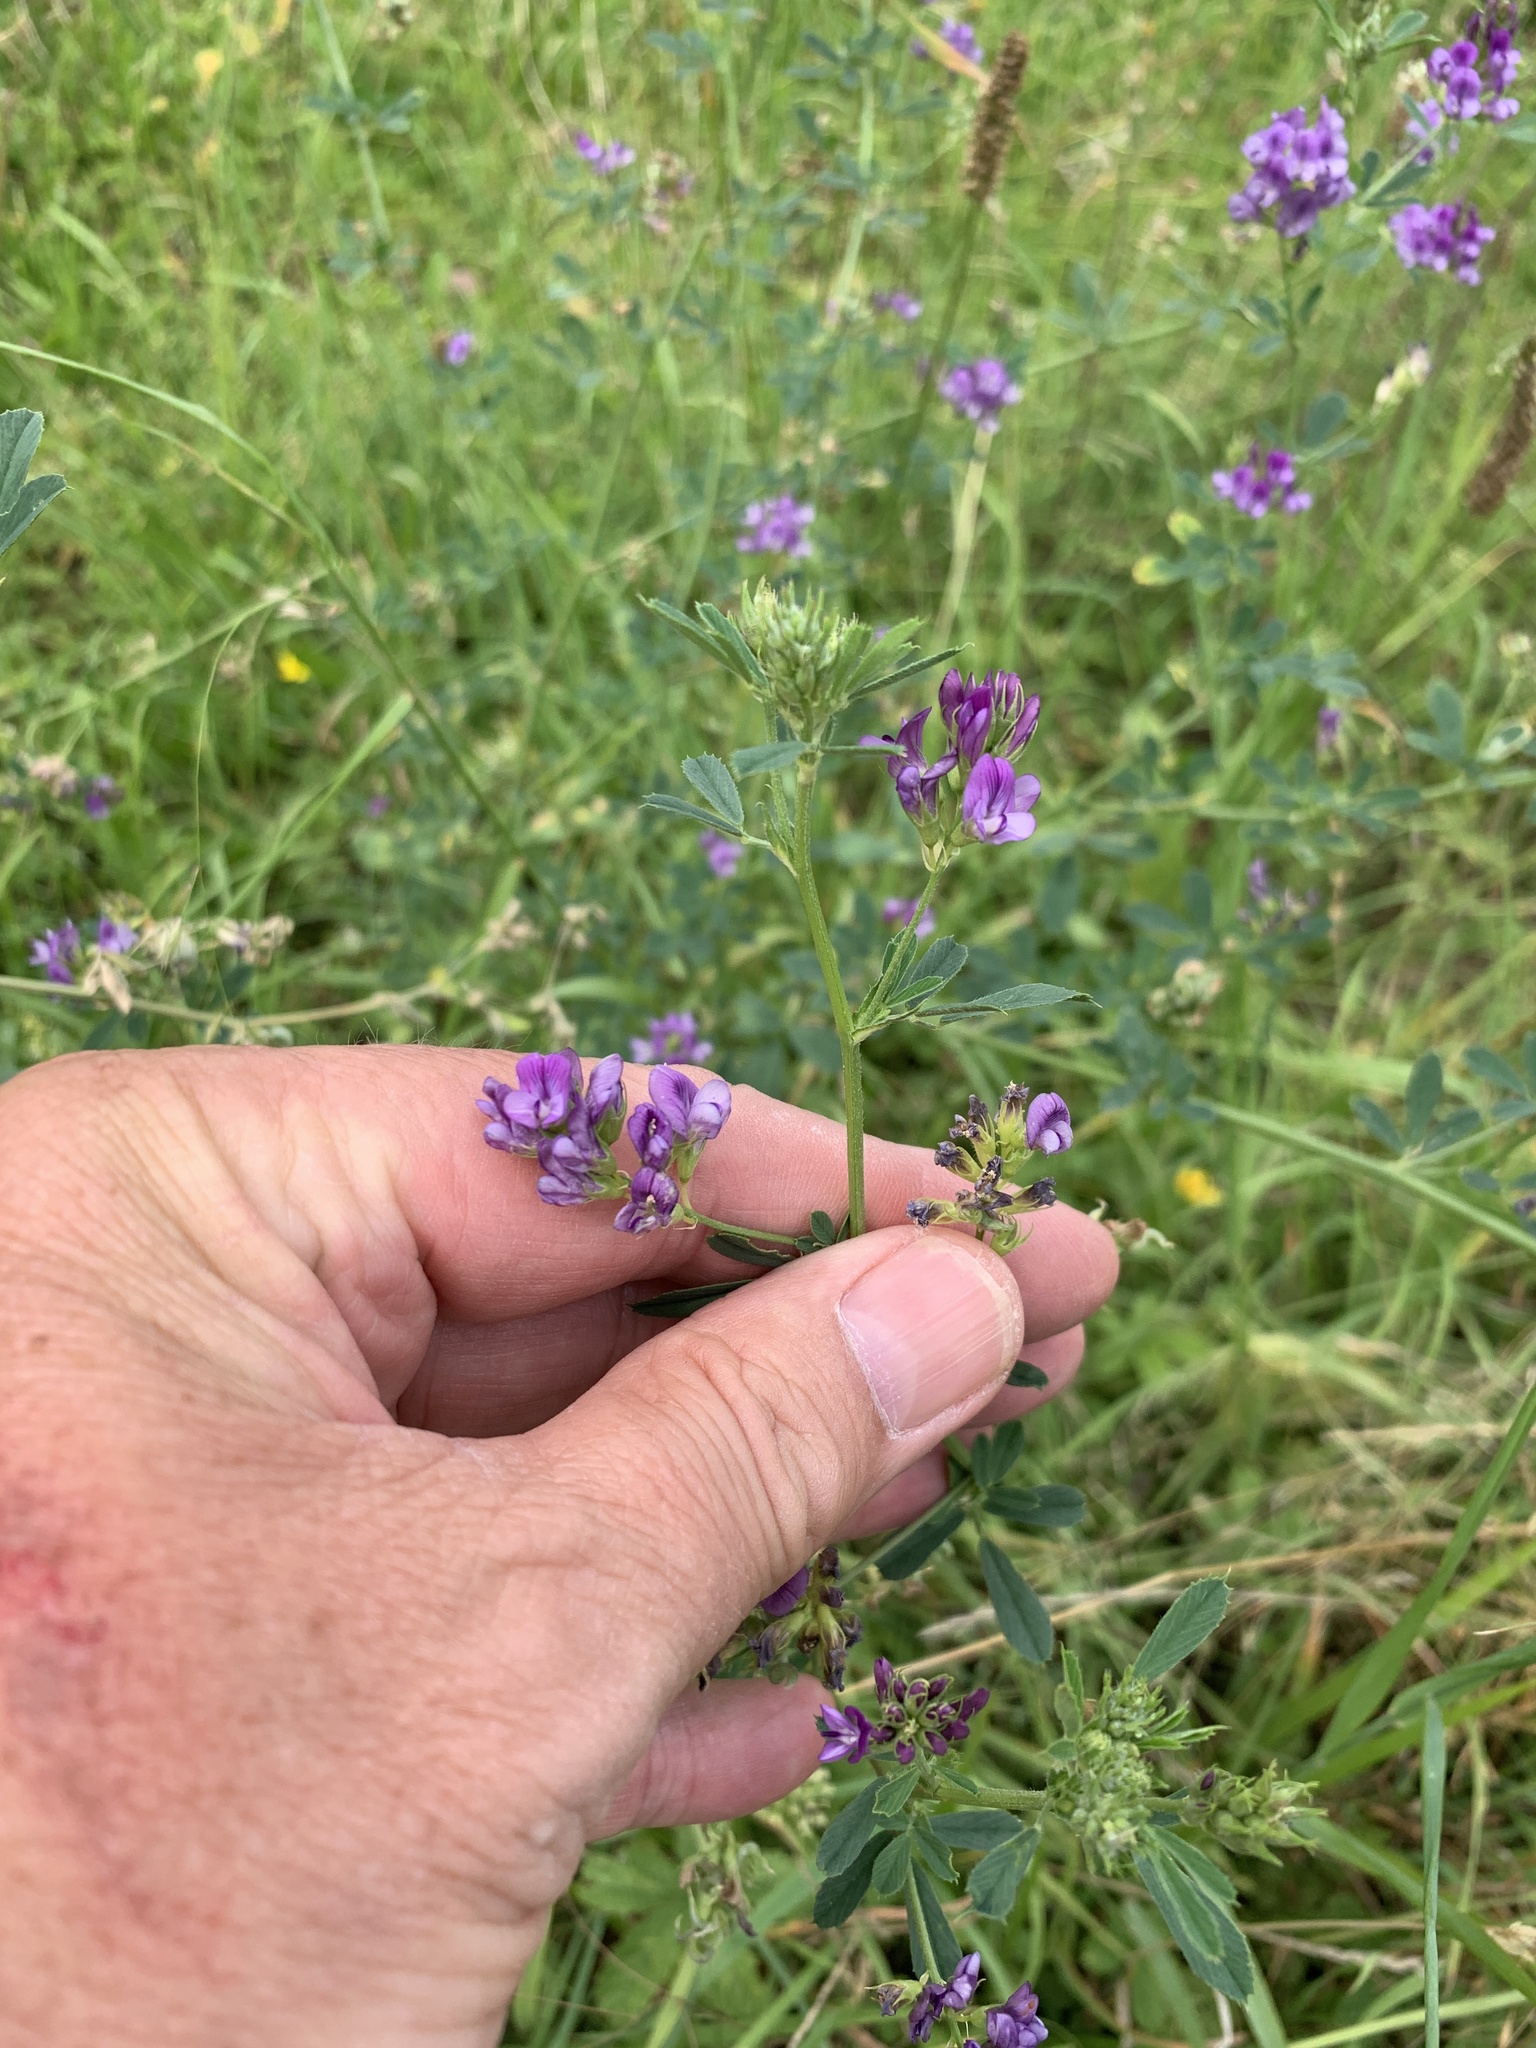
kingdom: Plantae
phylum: Tracheophyta
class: Magnoliopsida
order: Fabales
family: Fabaceae
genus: Medicago
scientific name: Medicago sativa
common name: Alfalfa
